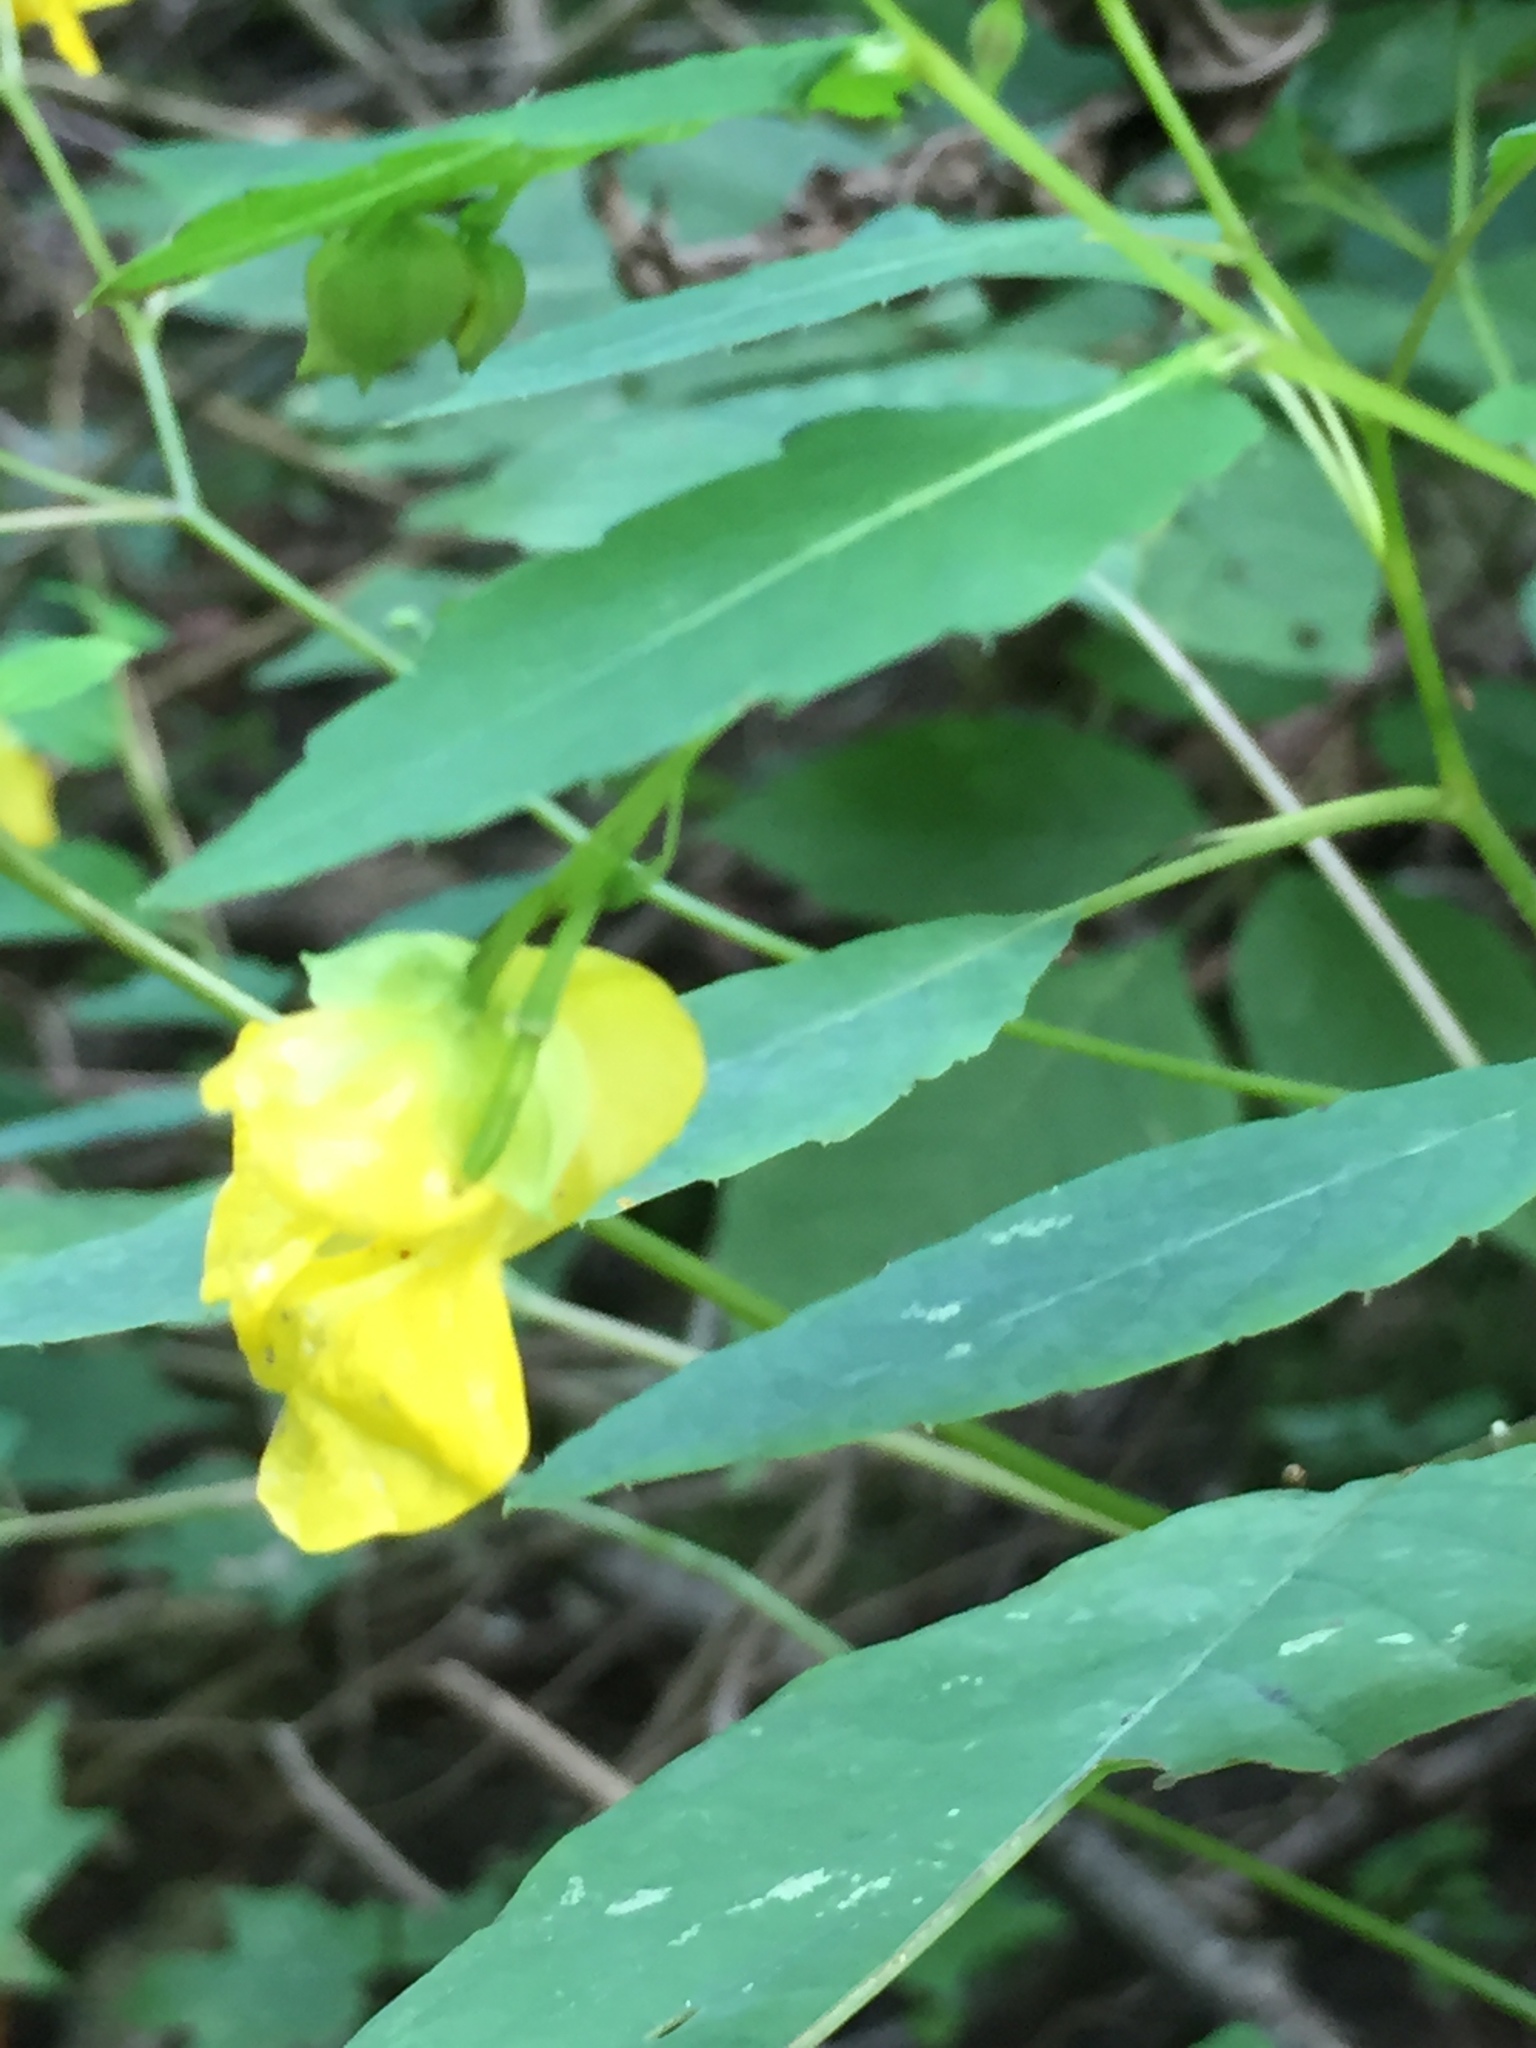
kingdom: Plantae
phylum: Tracheophyta
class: Magnoliopsida
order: Ericales
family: Balsaminaceae
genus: Impatiens
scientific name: Impatiens pallida
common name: Pale snapweed
